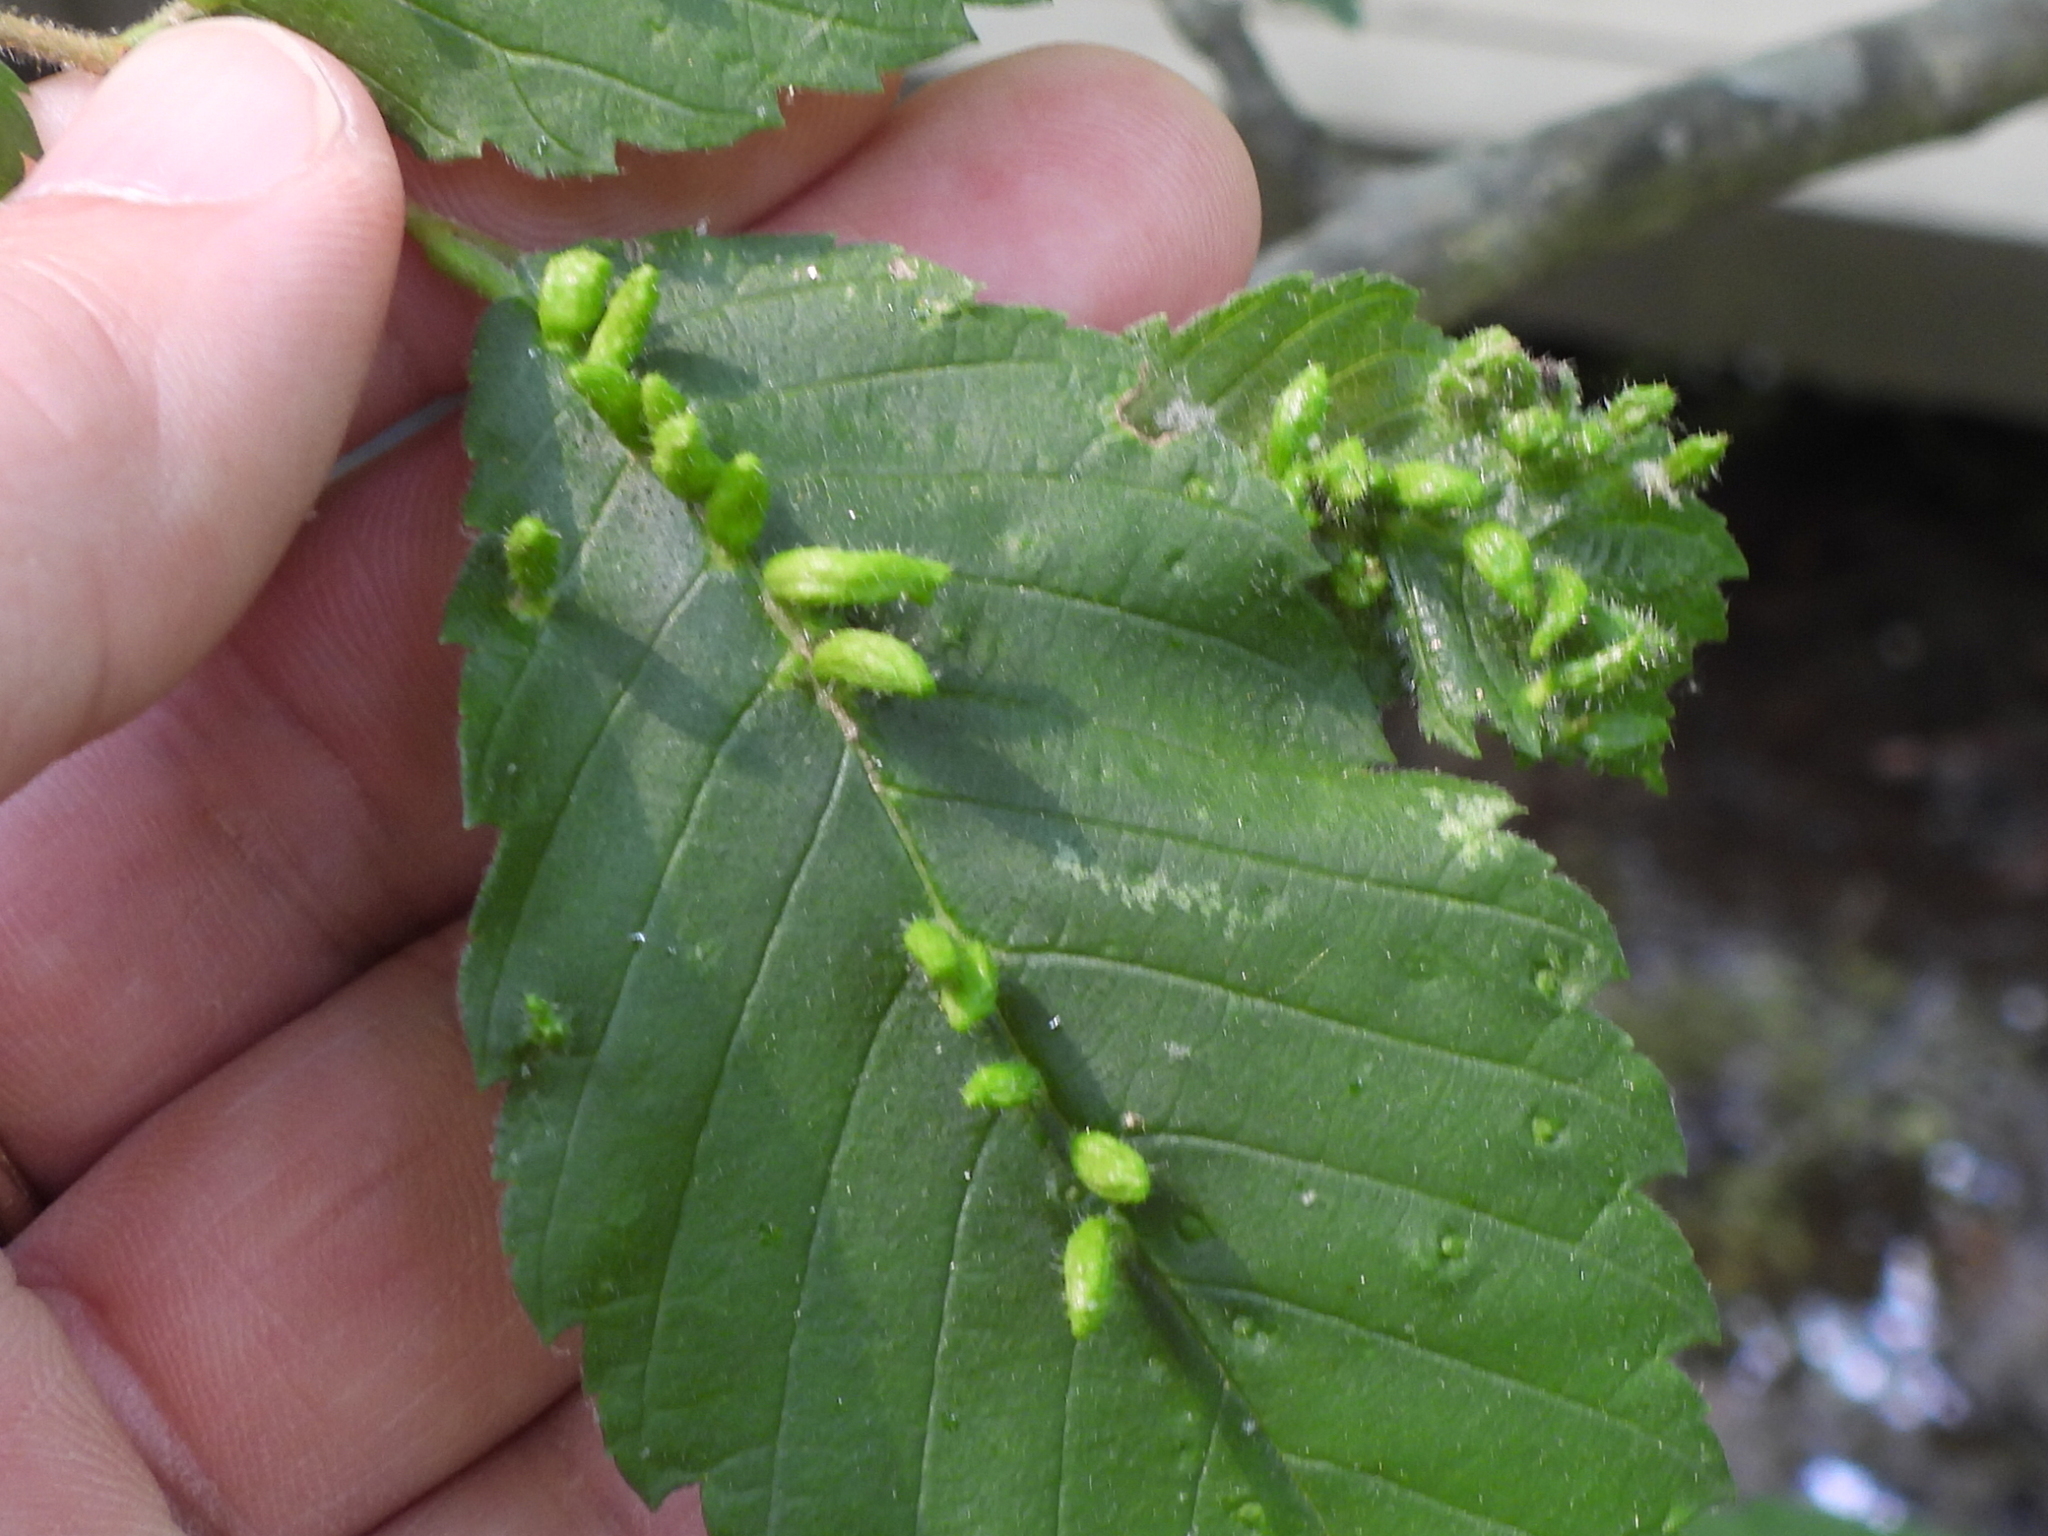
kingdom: Animalia
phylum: Arthropoda
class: Arachnida
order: Trombidiformes
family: Eriophyidae
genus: Aceria
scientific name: Aceria
